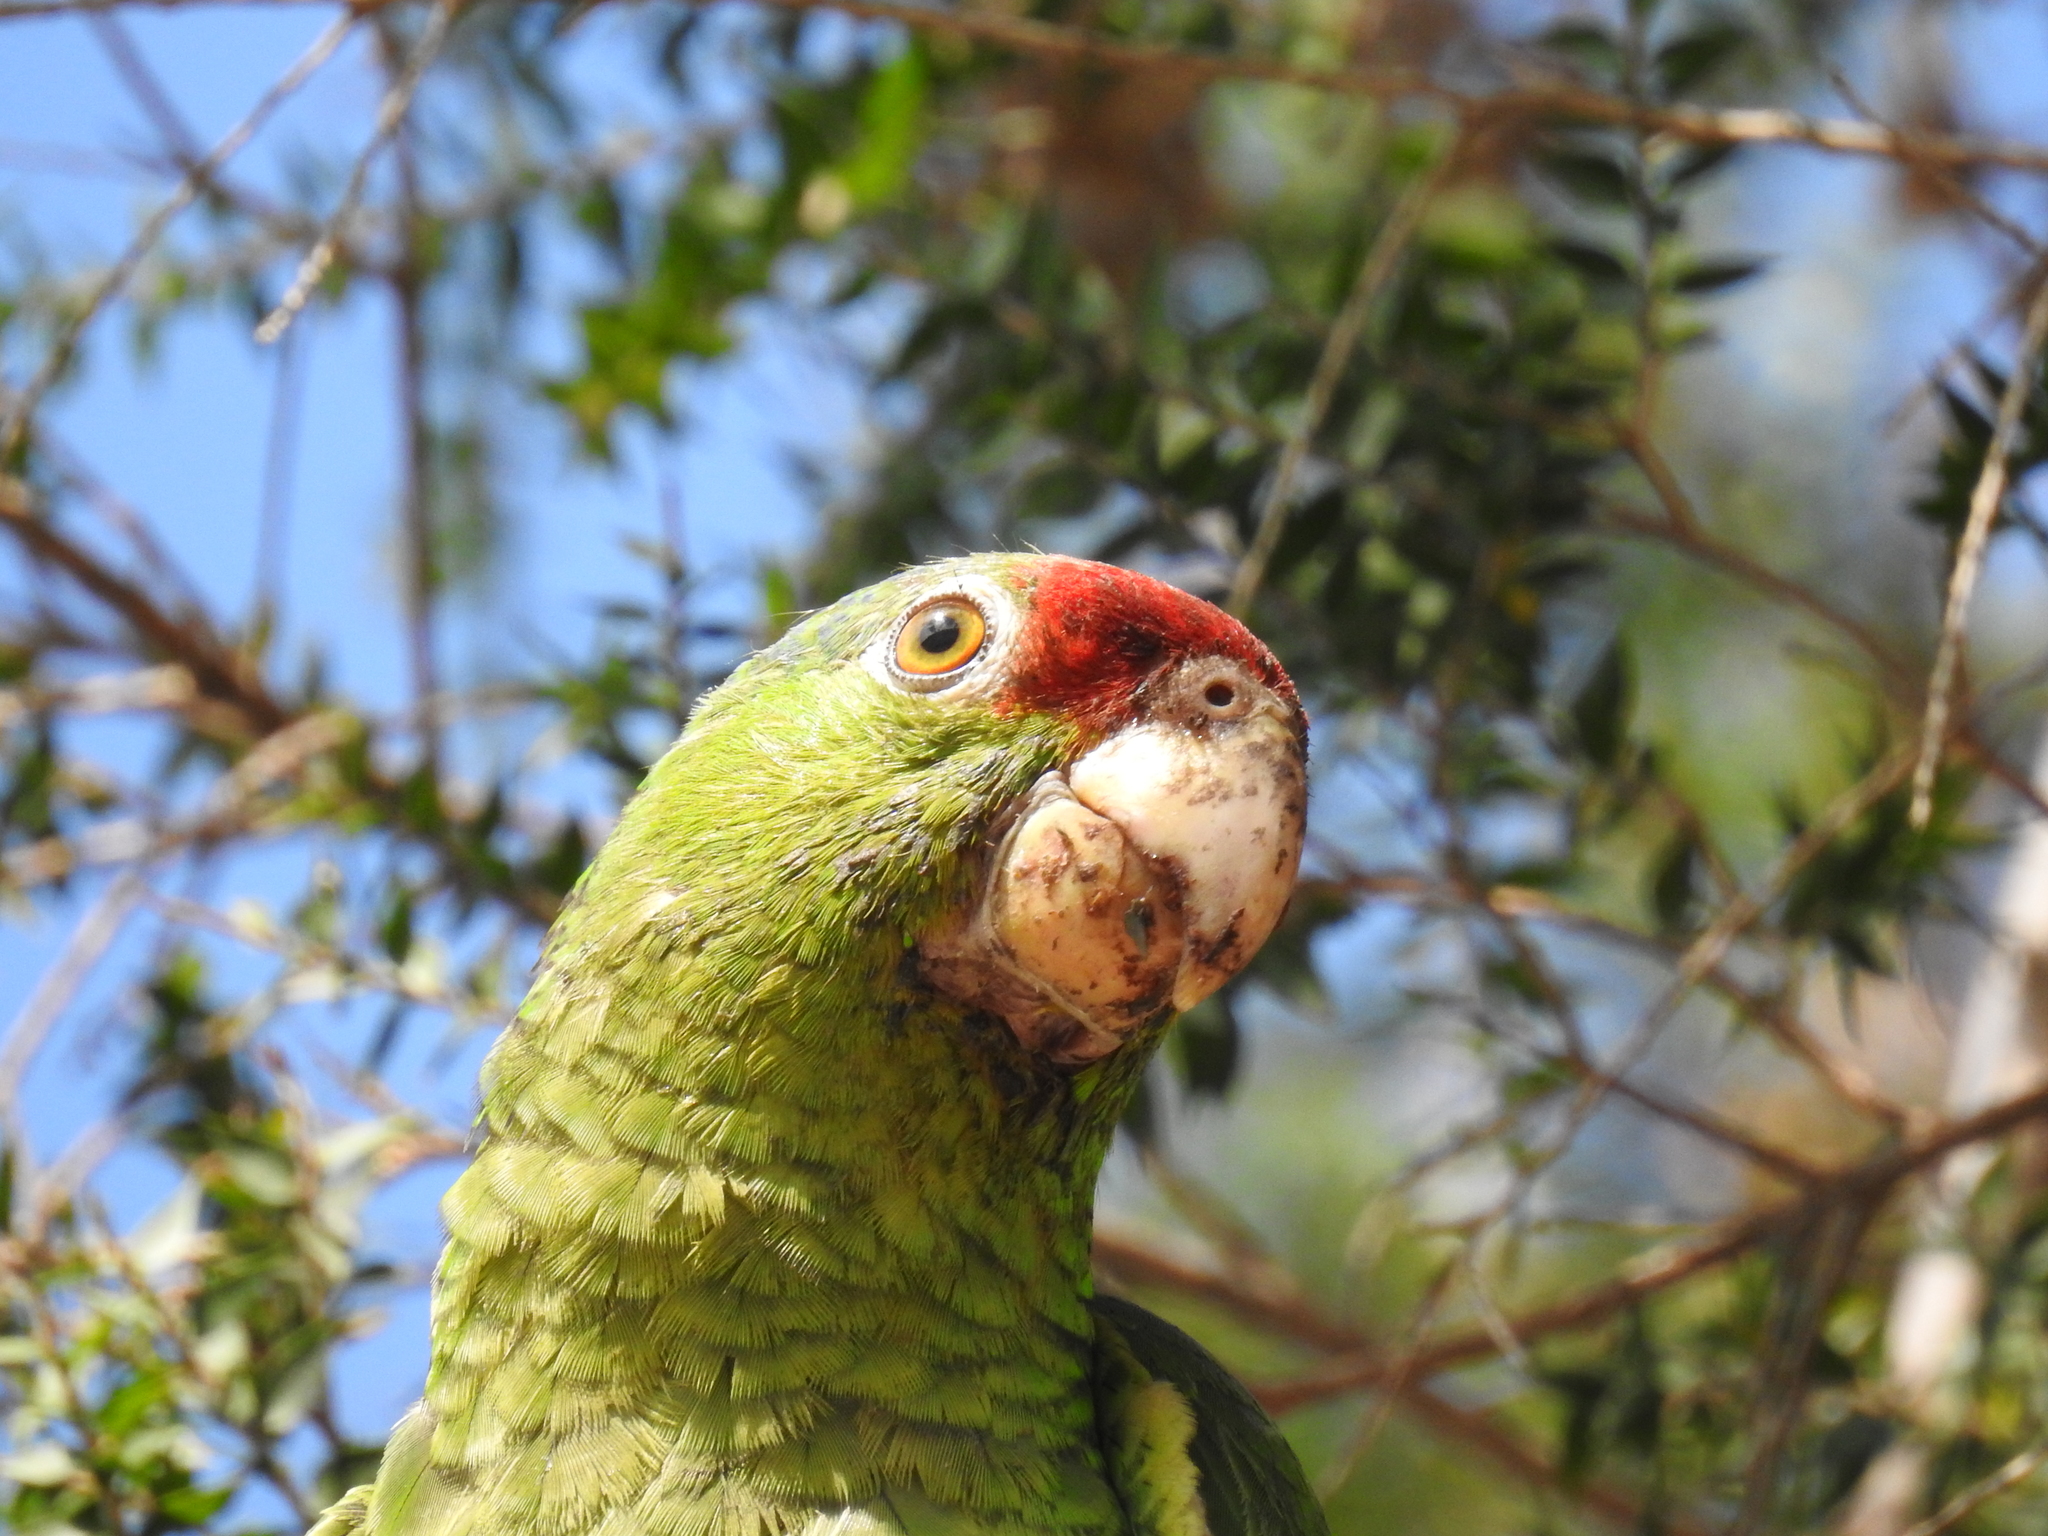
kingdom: Animalia
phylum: Chordata
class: Aves
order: Psittaciformes
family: Psittacidae
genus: Amazona
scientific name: Amazona viridigenalis
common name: Red-crowned amazon
